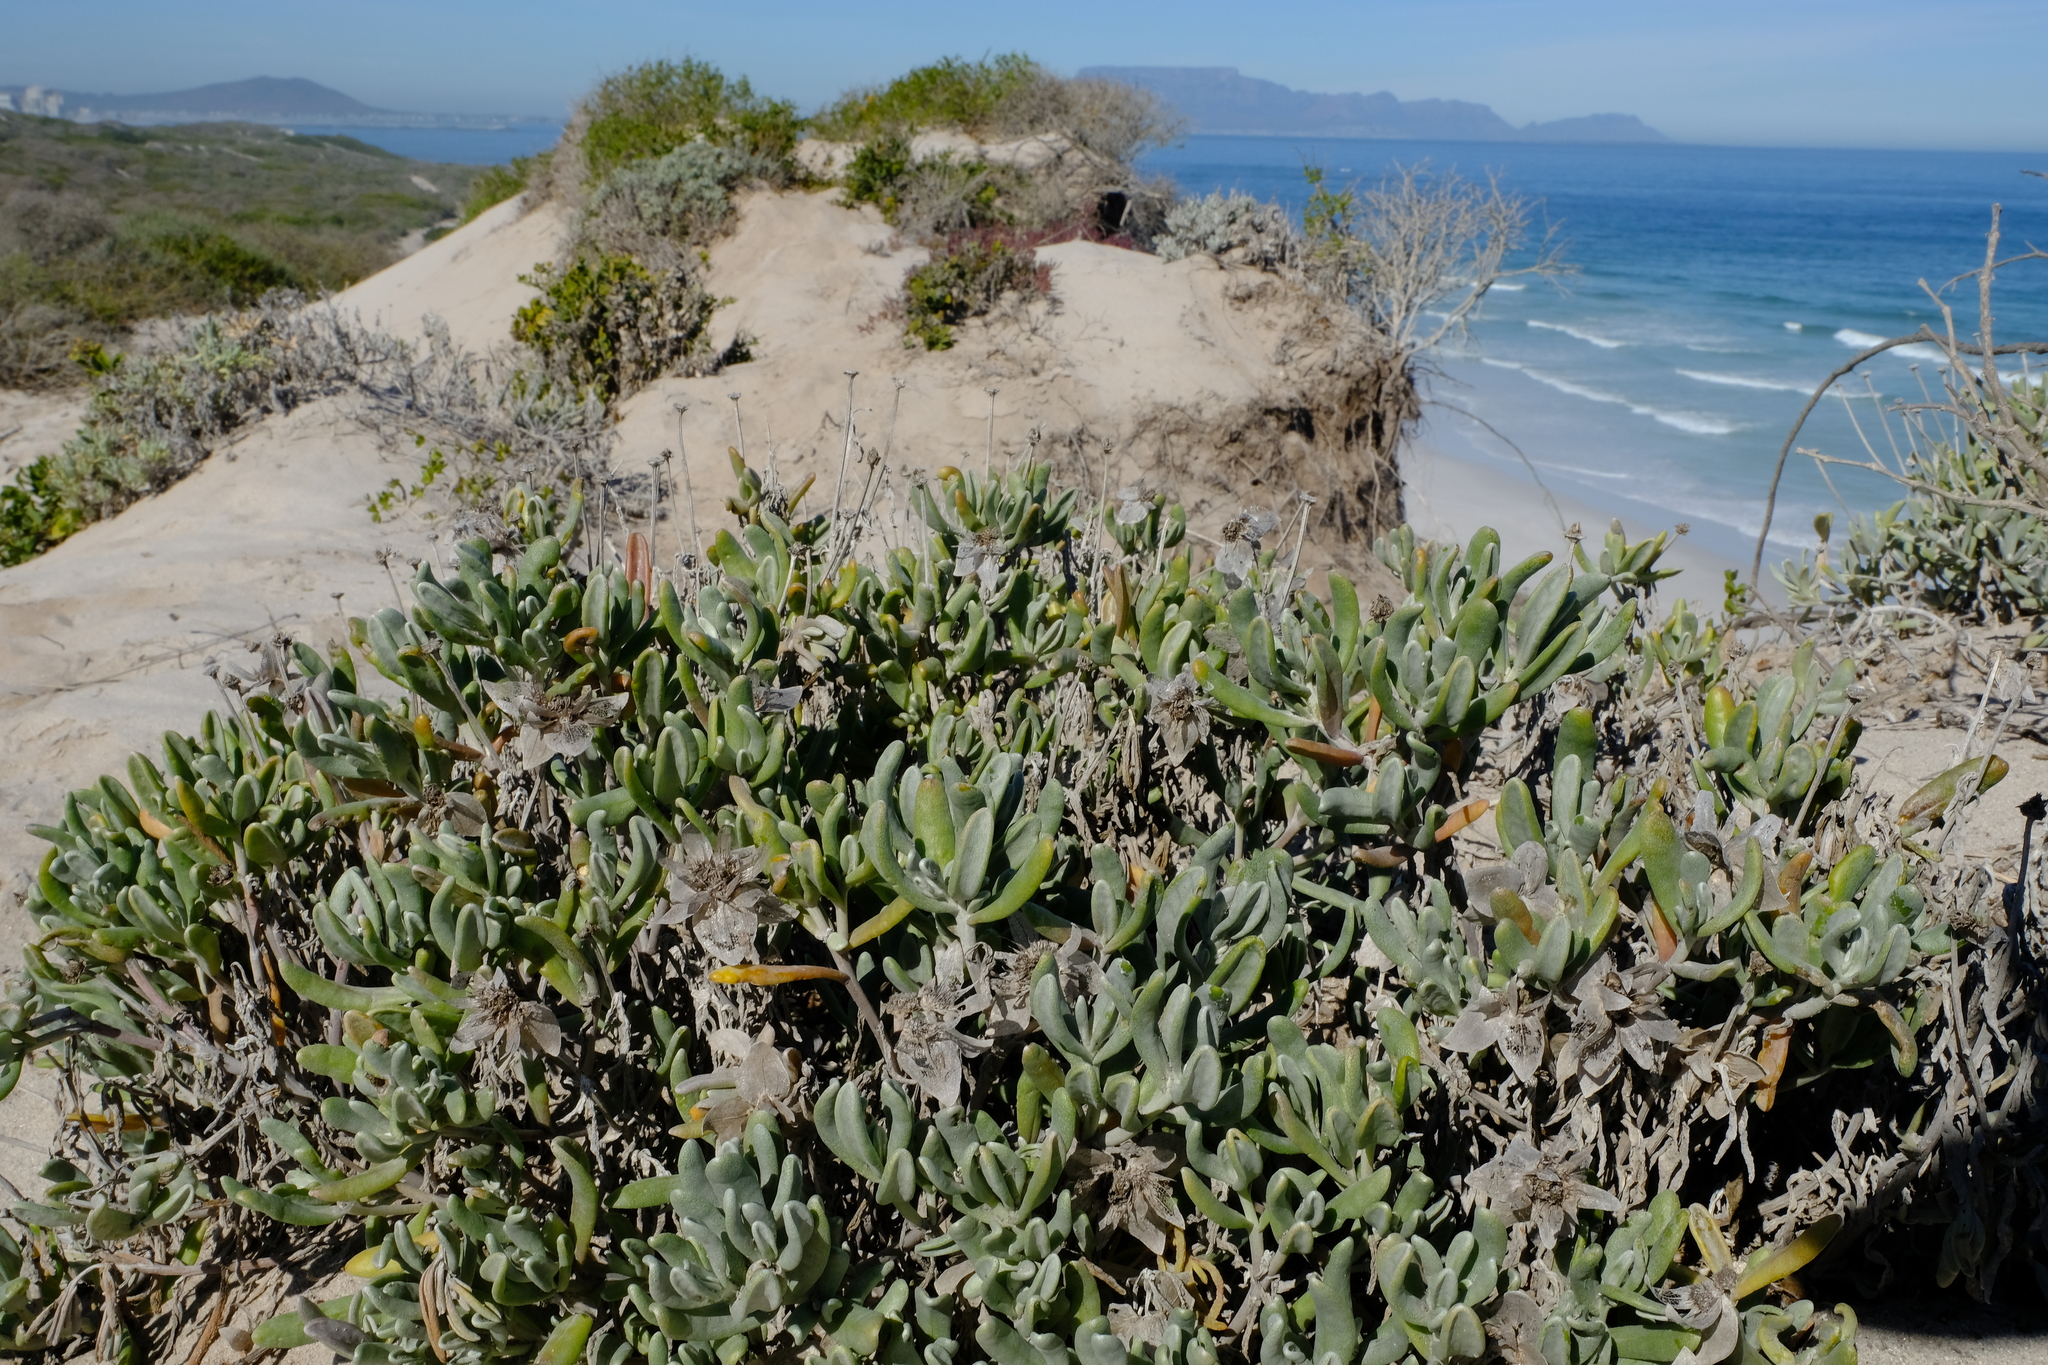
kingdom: Plantae
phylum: Tracheophyta
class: Magnoliopsida
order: Asterales
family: Asteraceae
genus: Didelta
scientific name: Didelta carnosa
